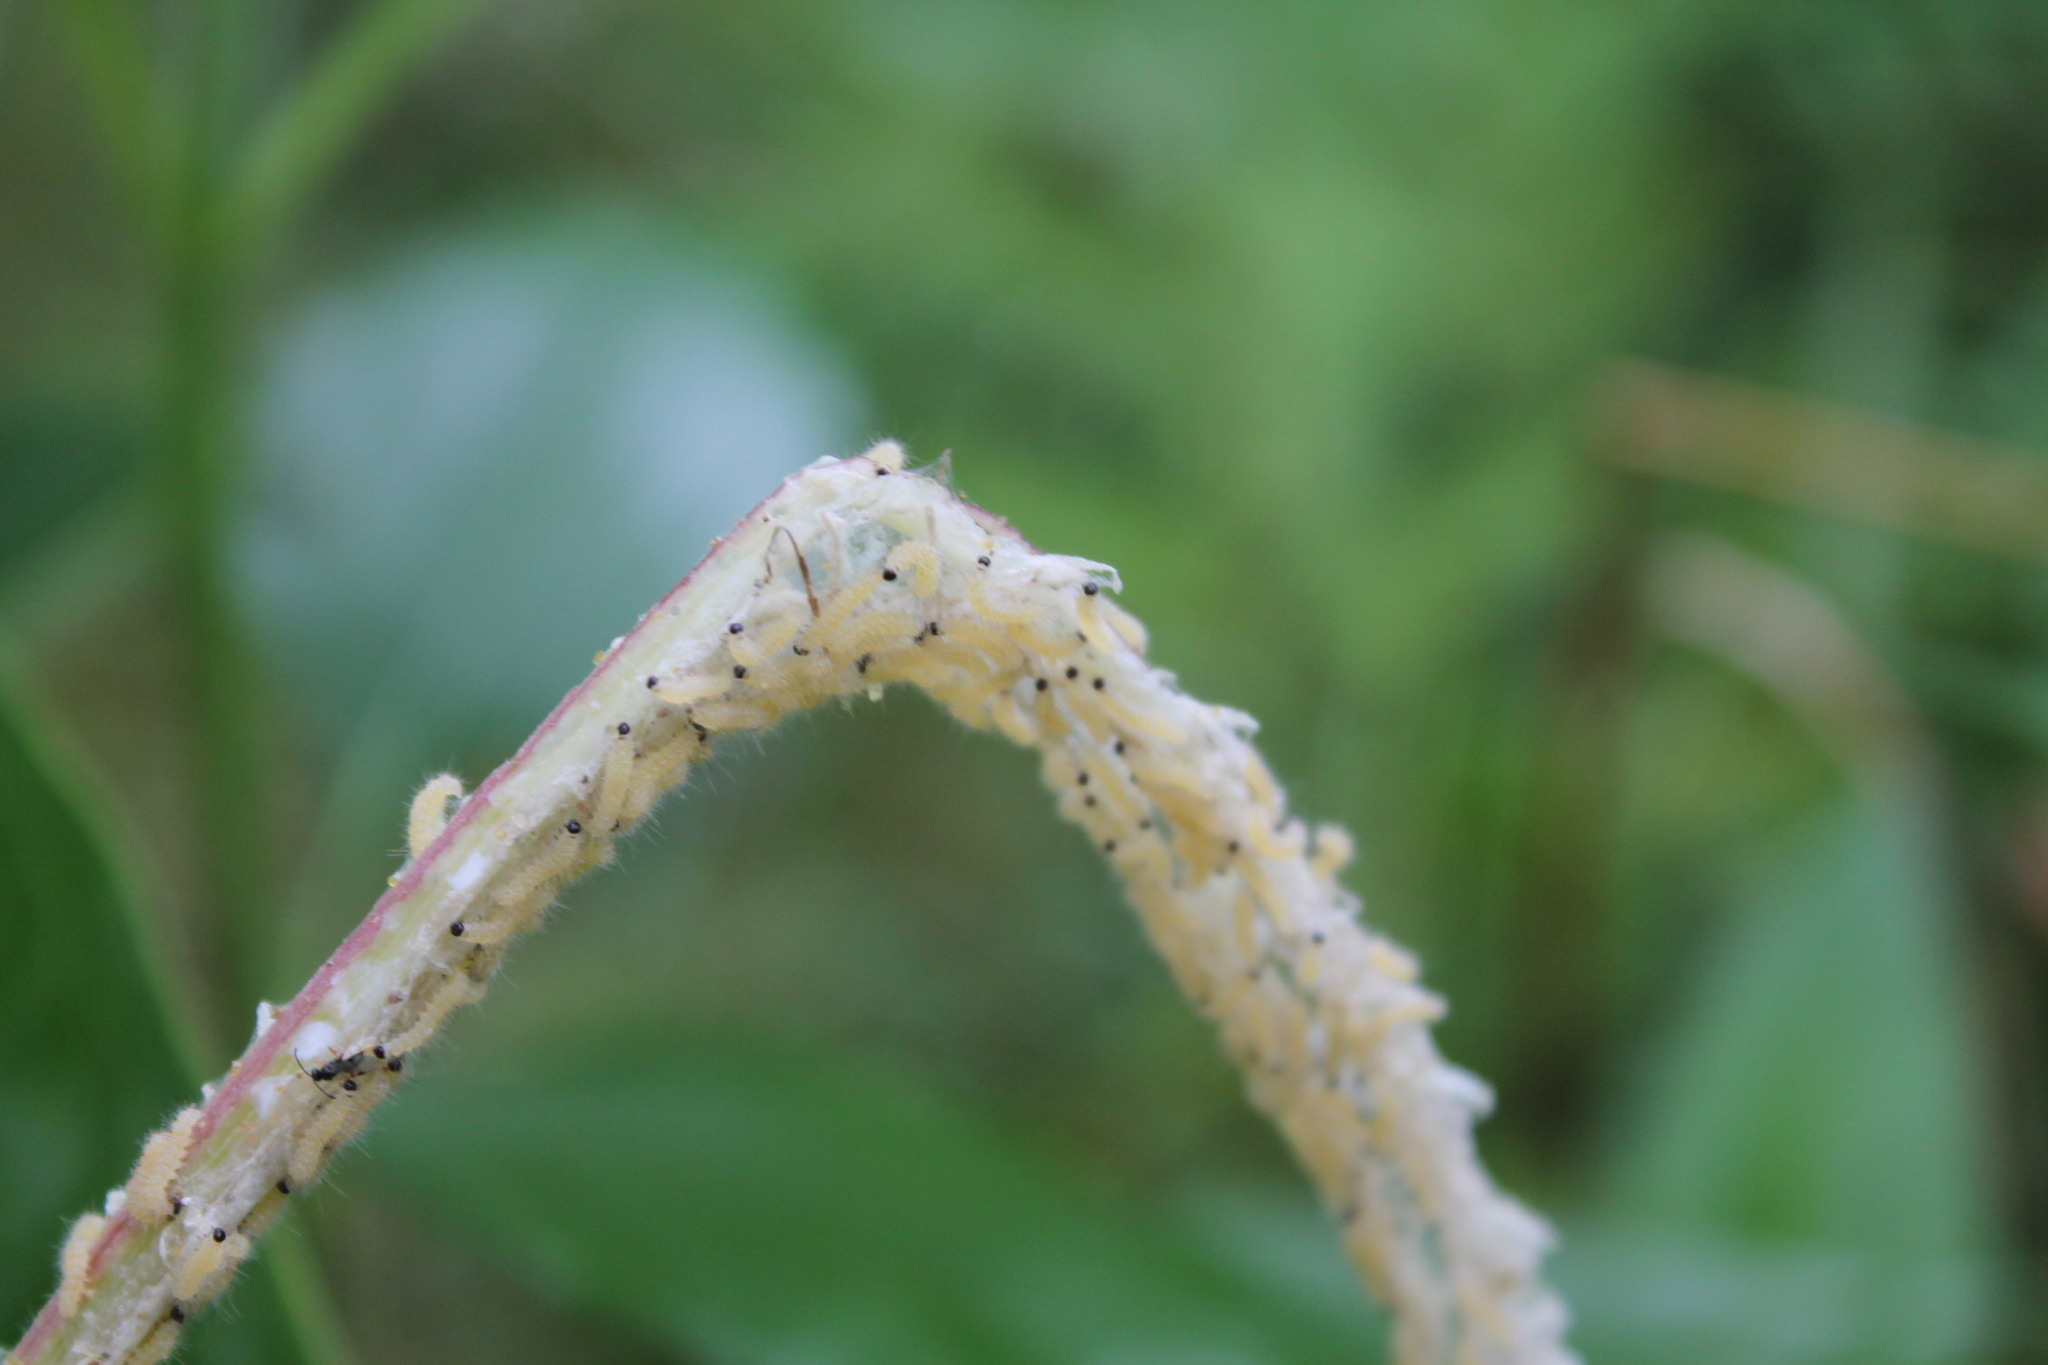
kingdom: Animalia
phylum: Arthropoda
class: Insecta
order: Lepidoptera
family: Erebidae
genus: Euchaetes
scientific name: Euchaetes egle
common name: Milkweed tussock moth
